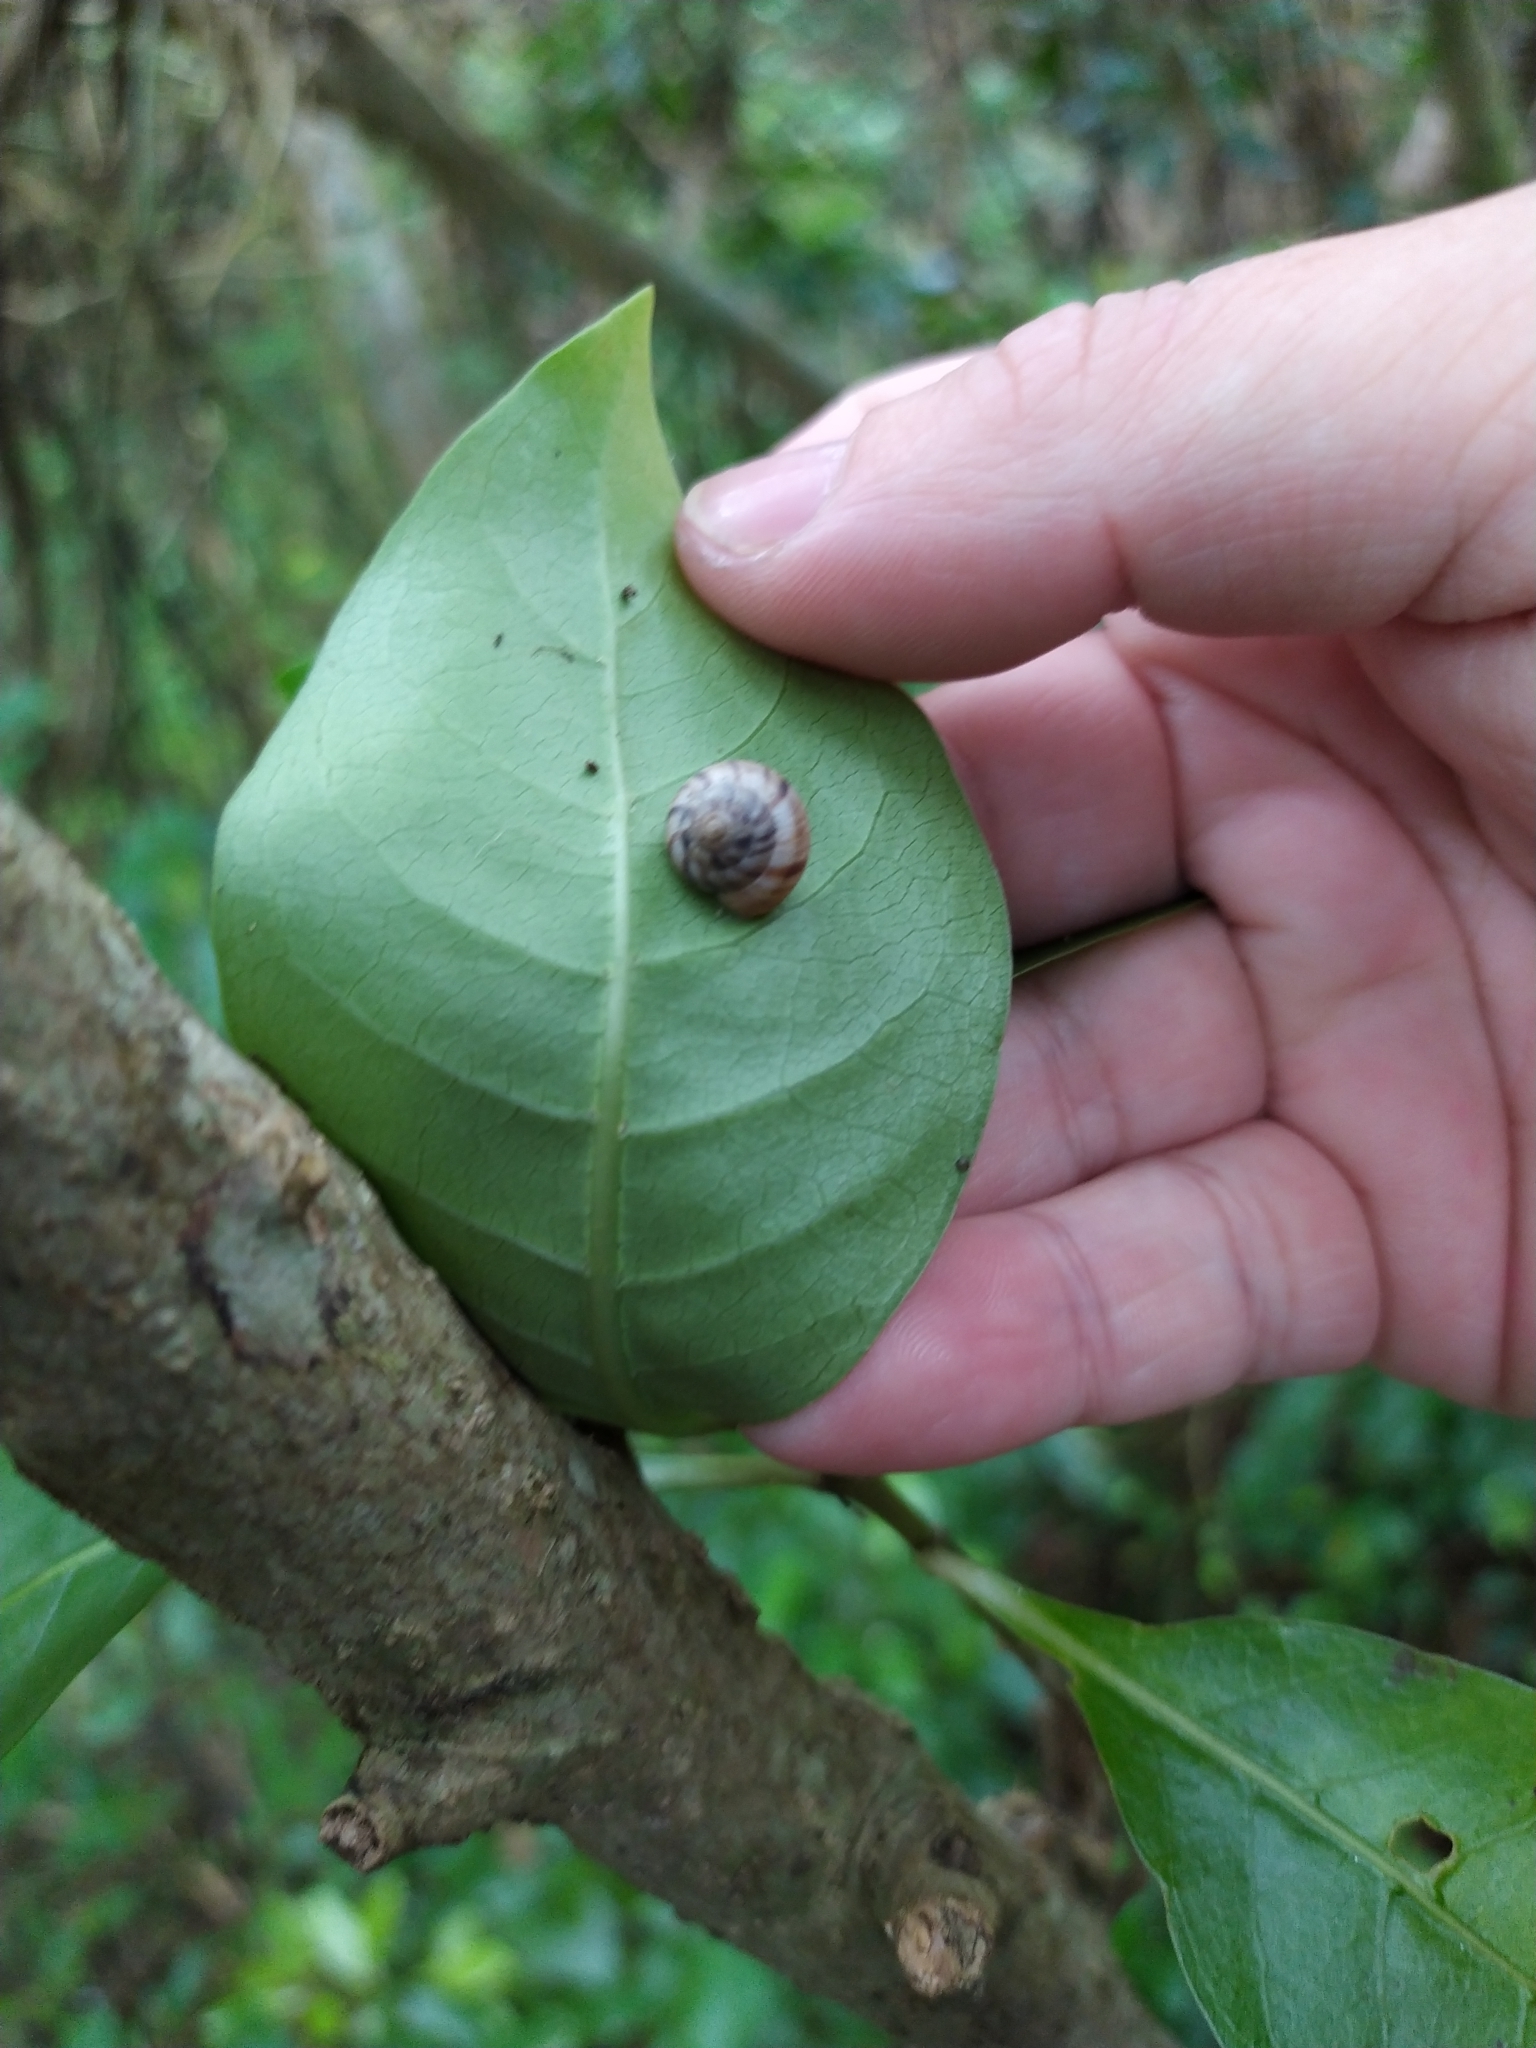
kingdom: Animalia
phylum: Mollusca
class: Gastropoda
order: Stylommatophora
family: Charopidae
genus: Serpho
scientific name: Serpho
